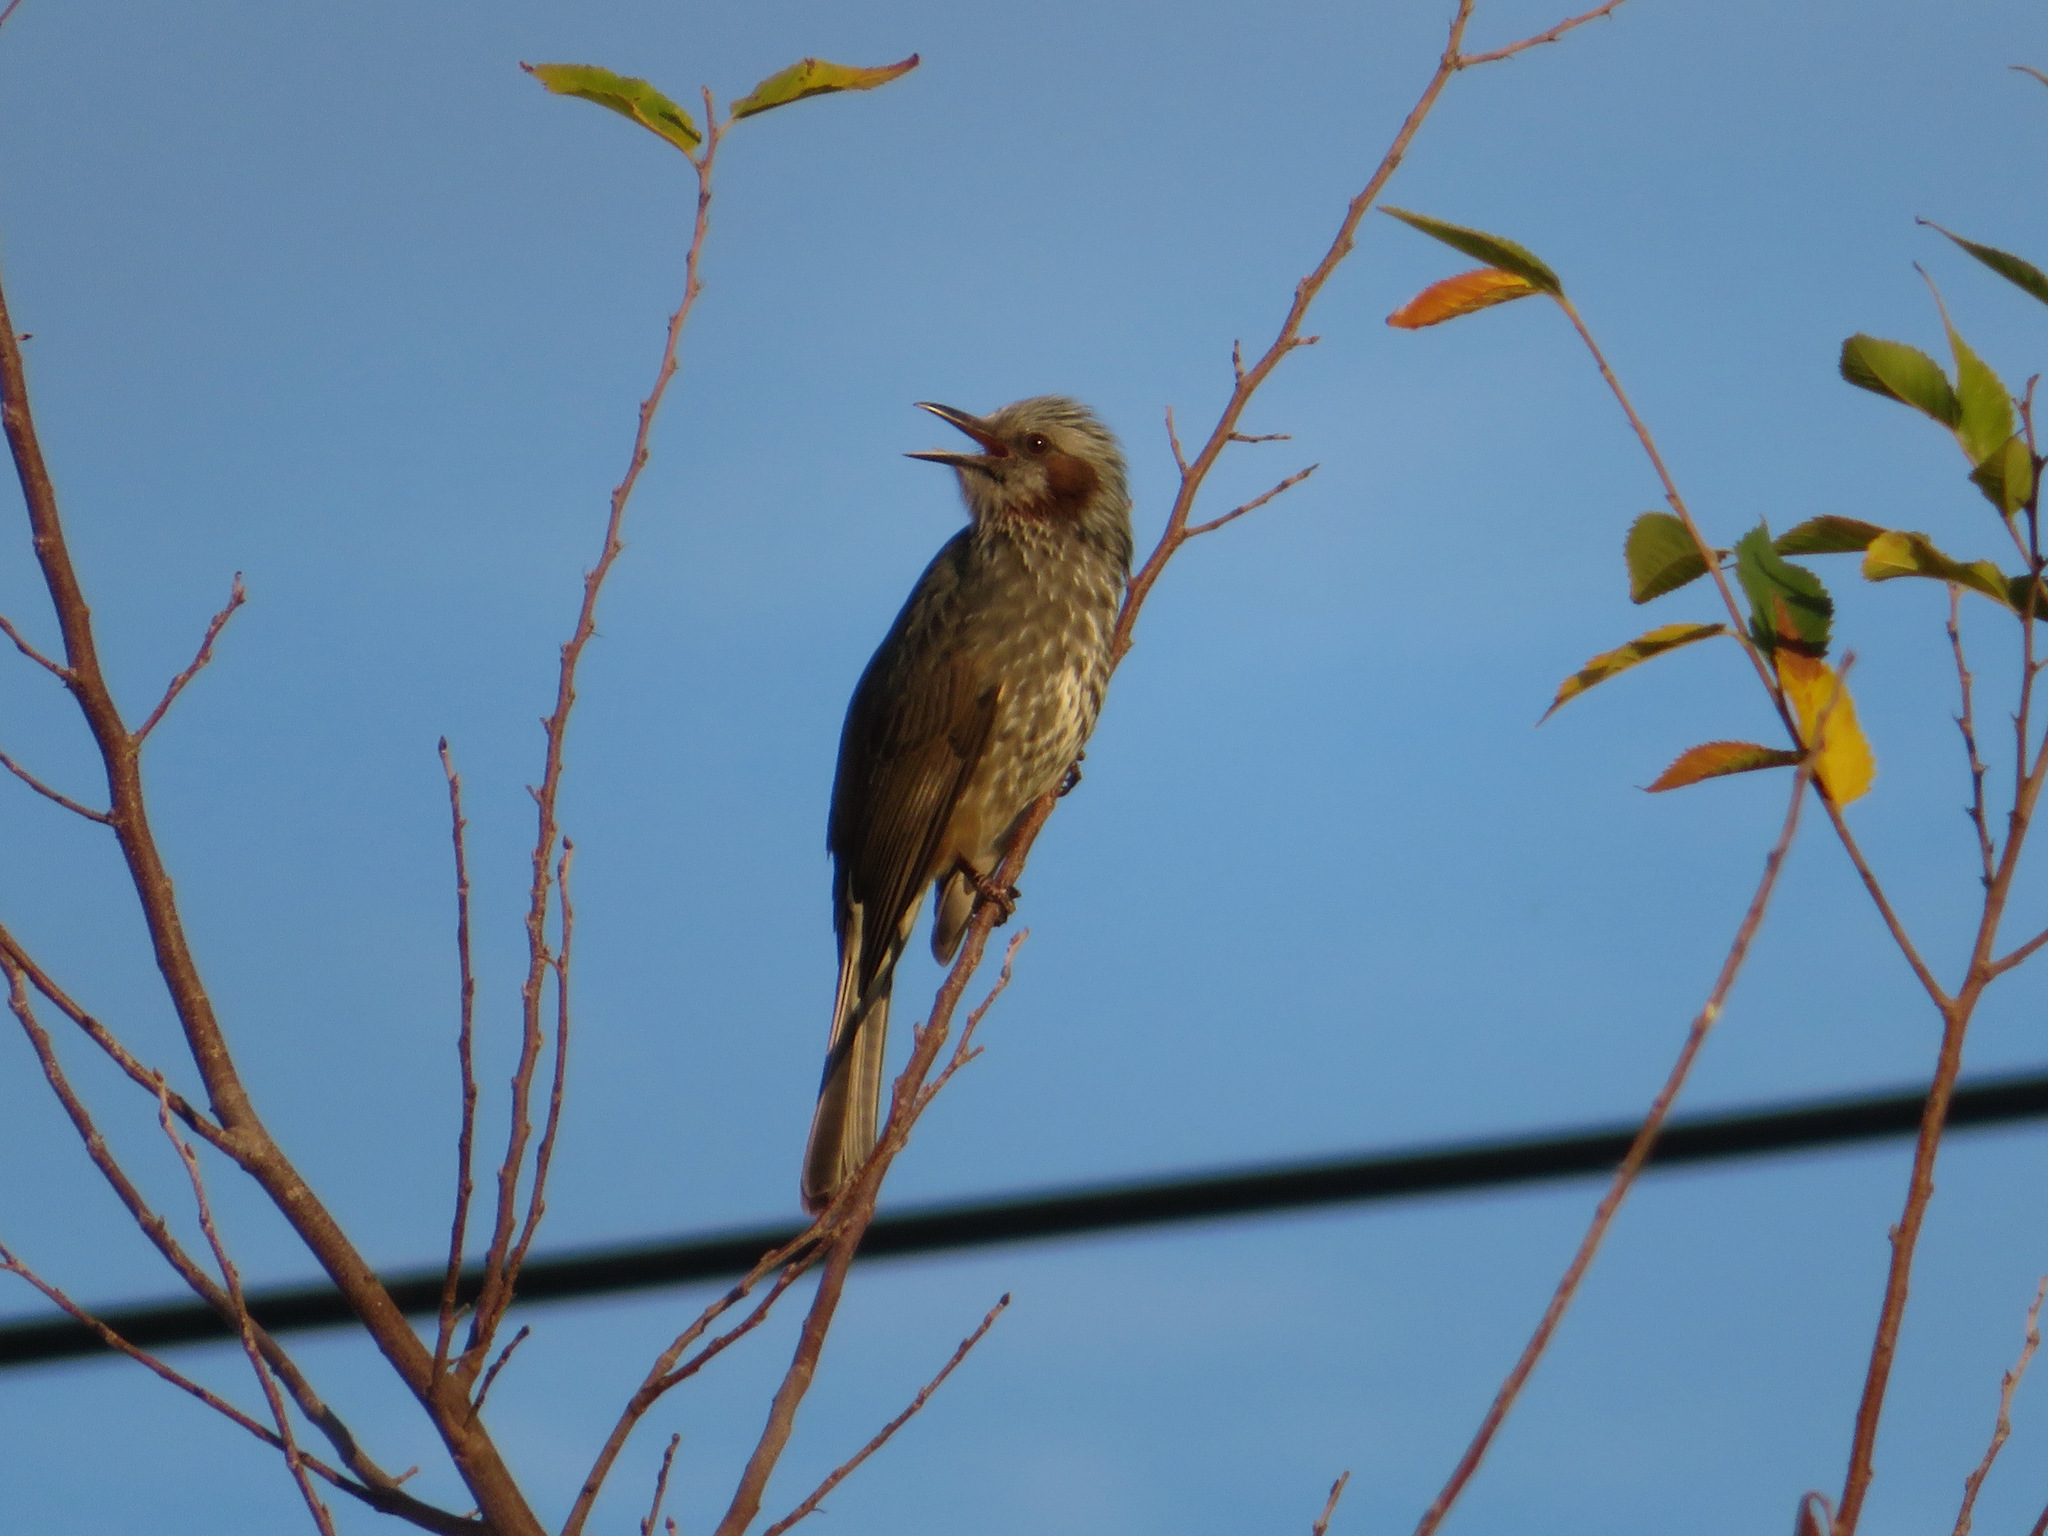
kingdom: Animalia
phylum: Chordata
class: Aves
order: Passeriformes
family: Pycnonotidae
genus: Hypsipetes
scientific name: Hypsipetes amaurotis
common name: Brown-eared bulbul
